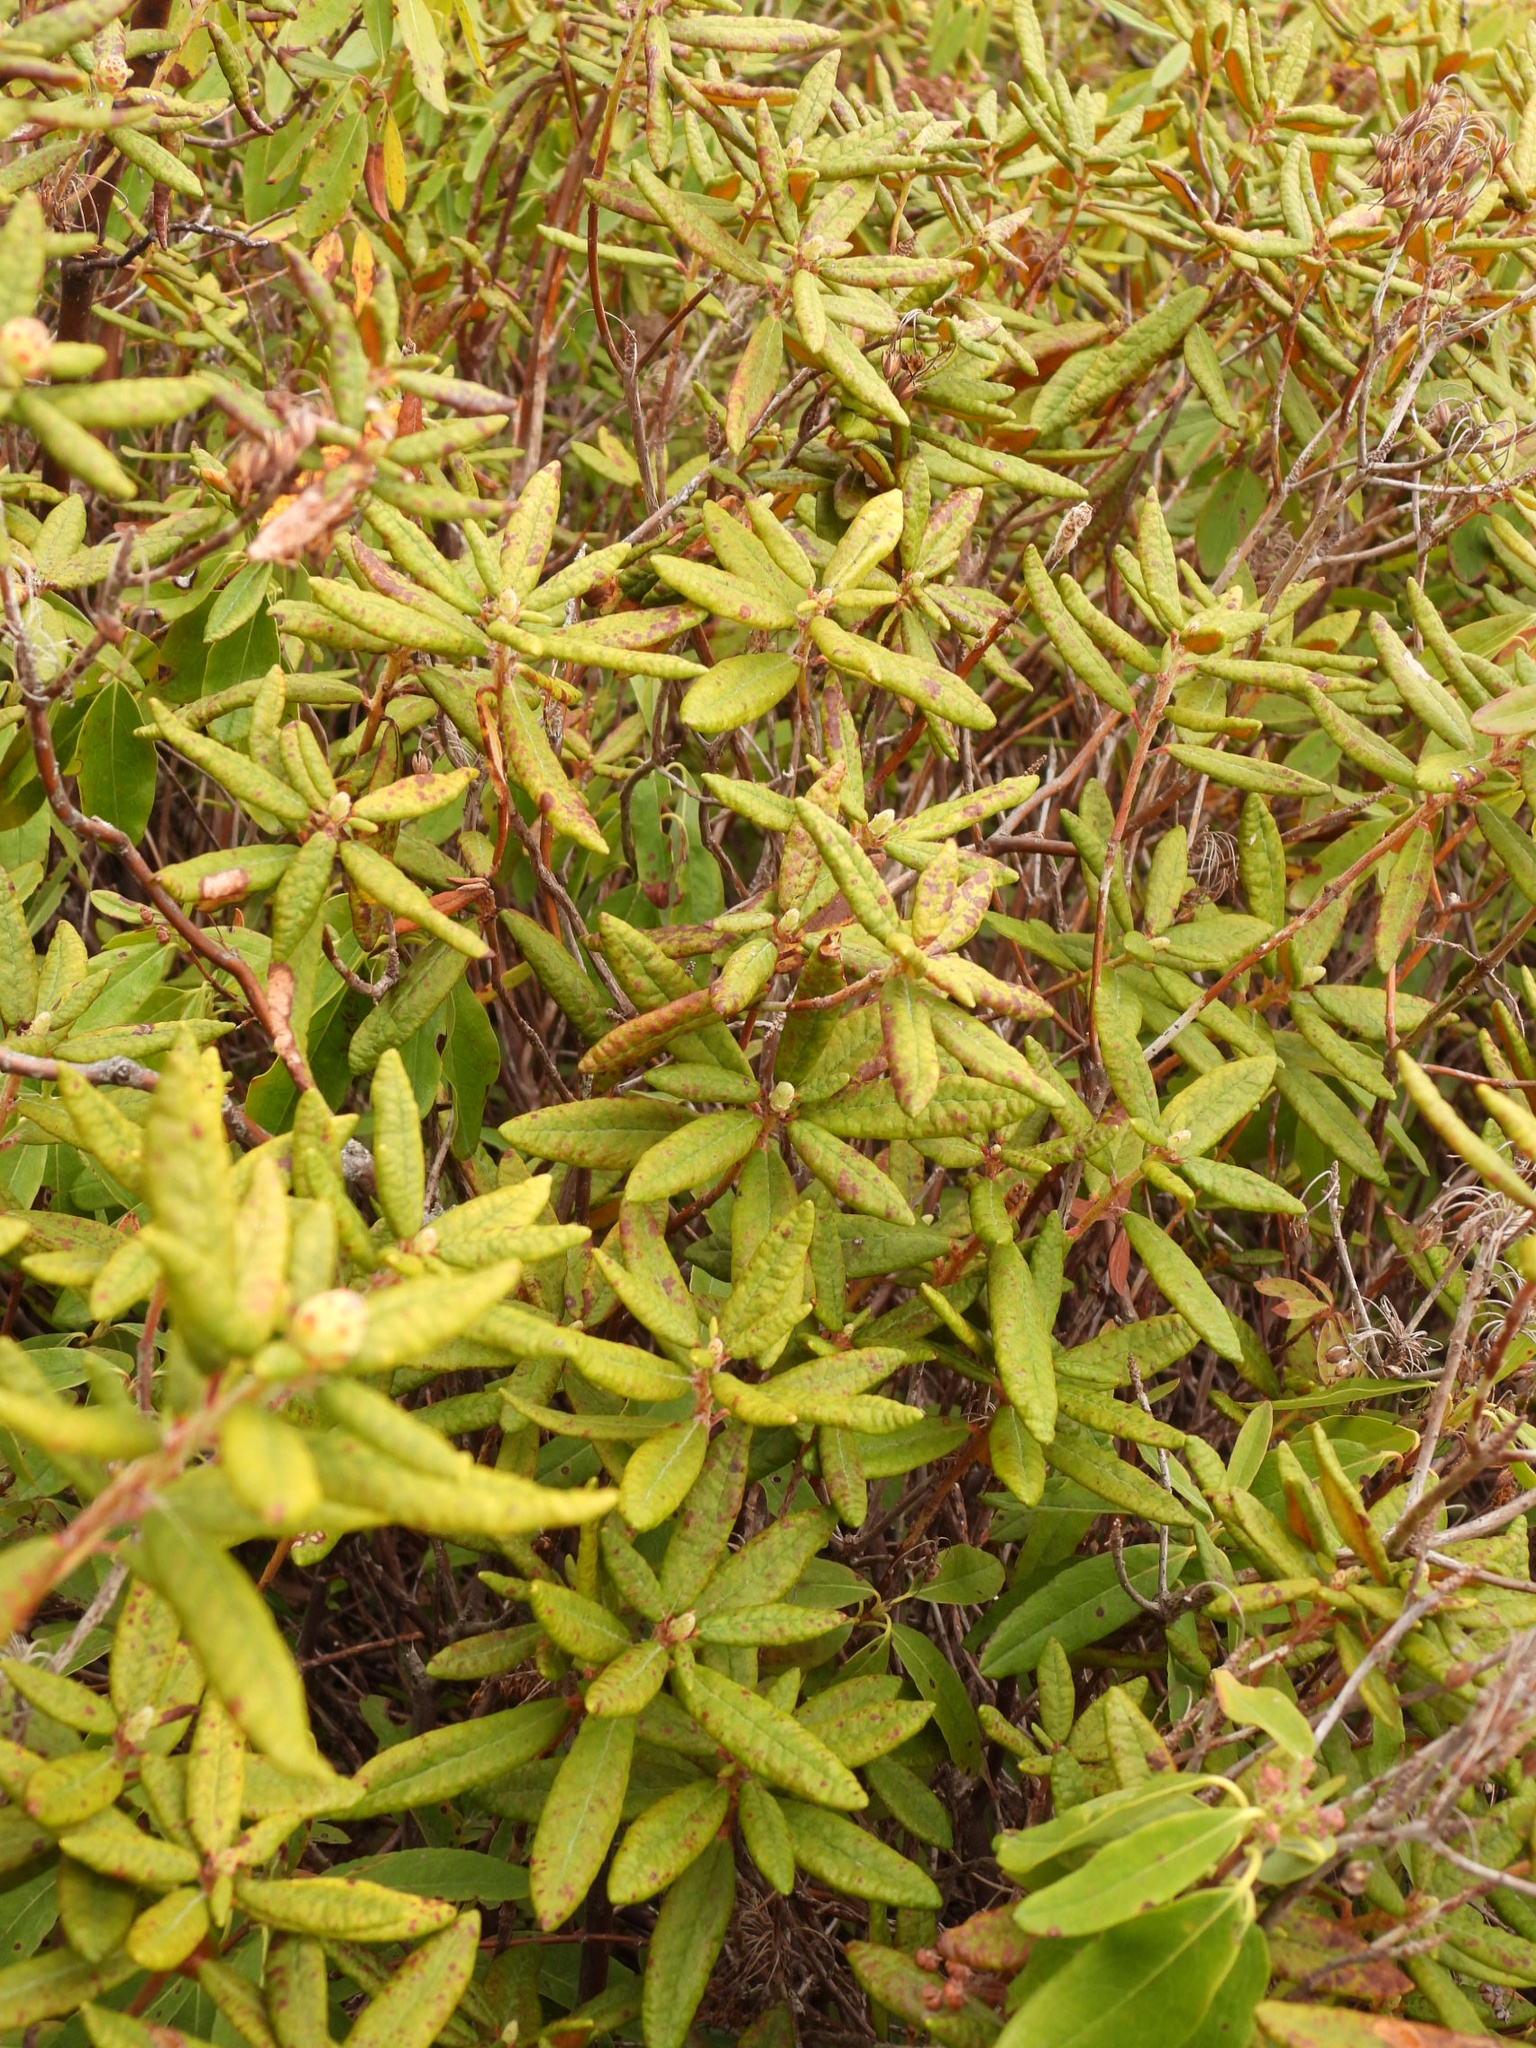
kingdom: Plantae
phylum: Tracheophyta
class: Magnoliopsida
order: Ericales
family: Ericaceae
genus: Rhododendron
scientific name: Rhododendron groenlandicum
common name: Bog labrador tea
